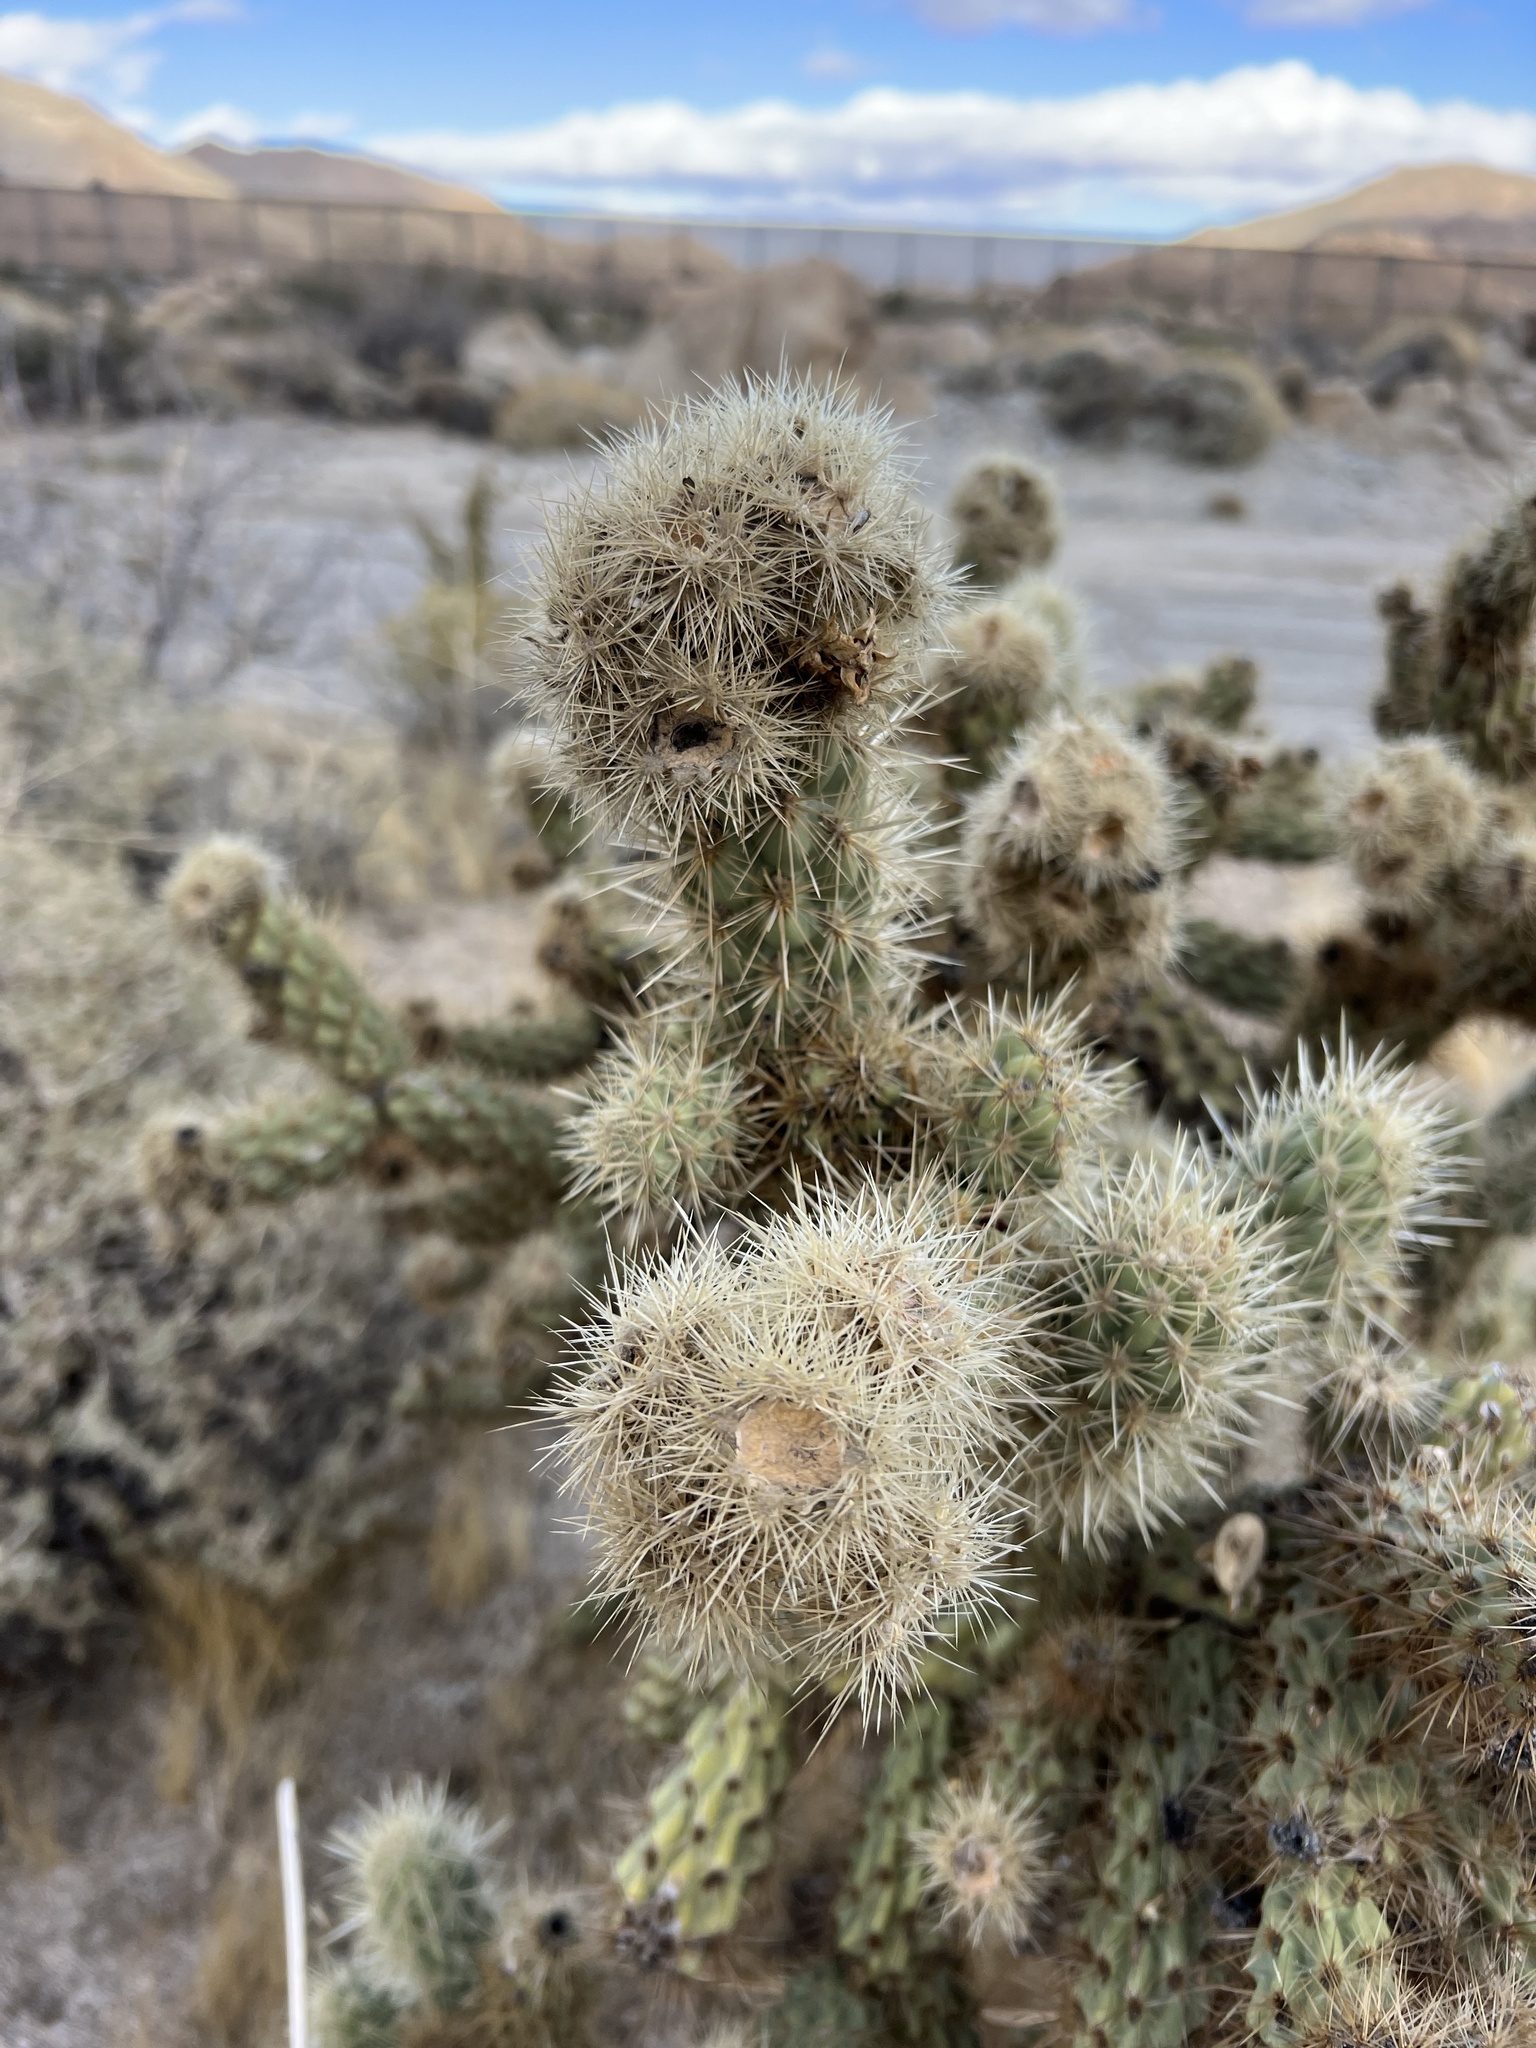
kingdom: Plantae
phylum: Tracheophyta
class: Magnoliopsida
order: Caryophyllales
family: Cactaceae
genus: Cylindropuntia
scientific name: Cylindropuntia wolfii
